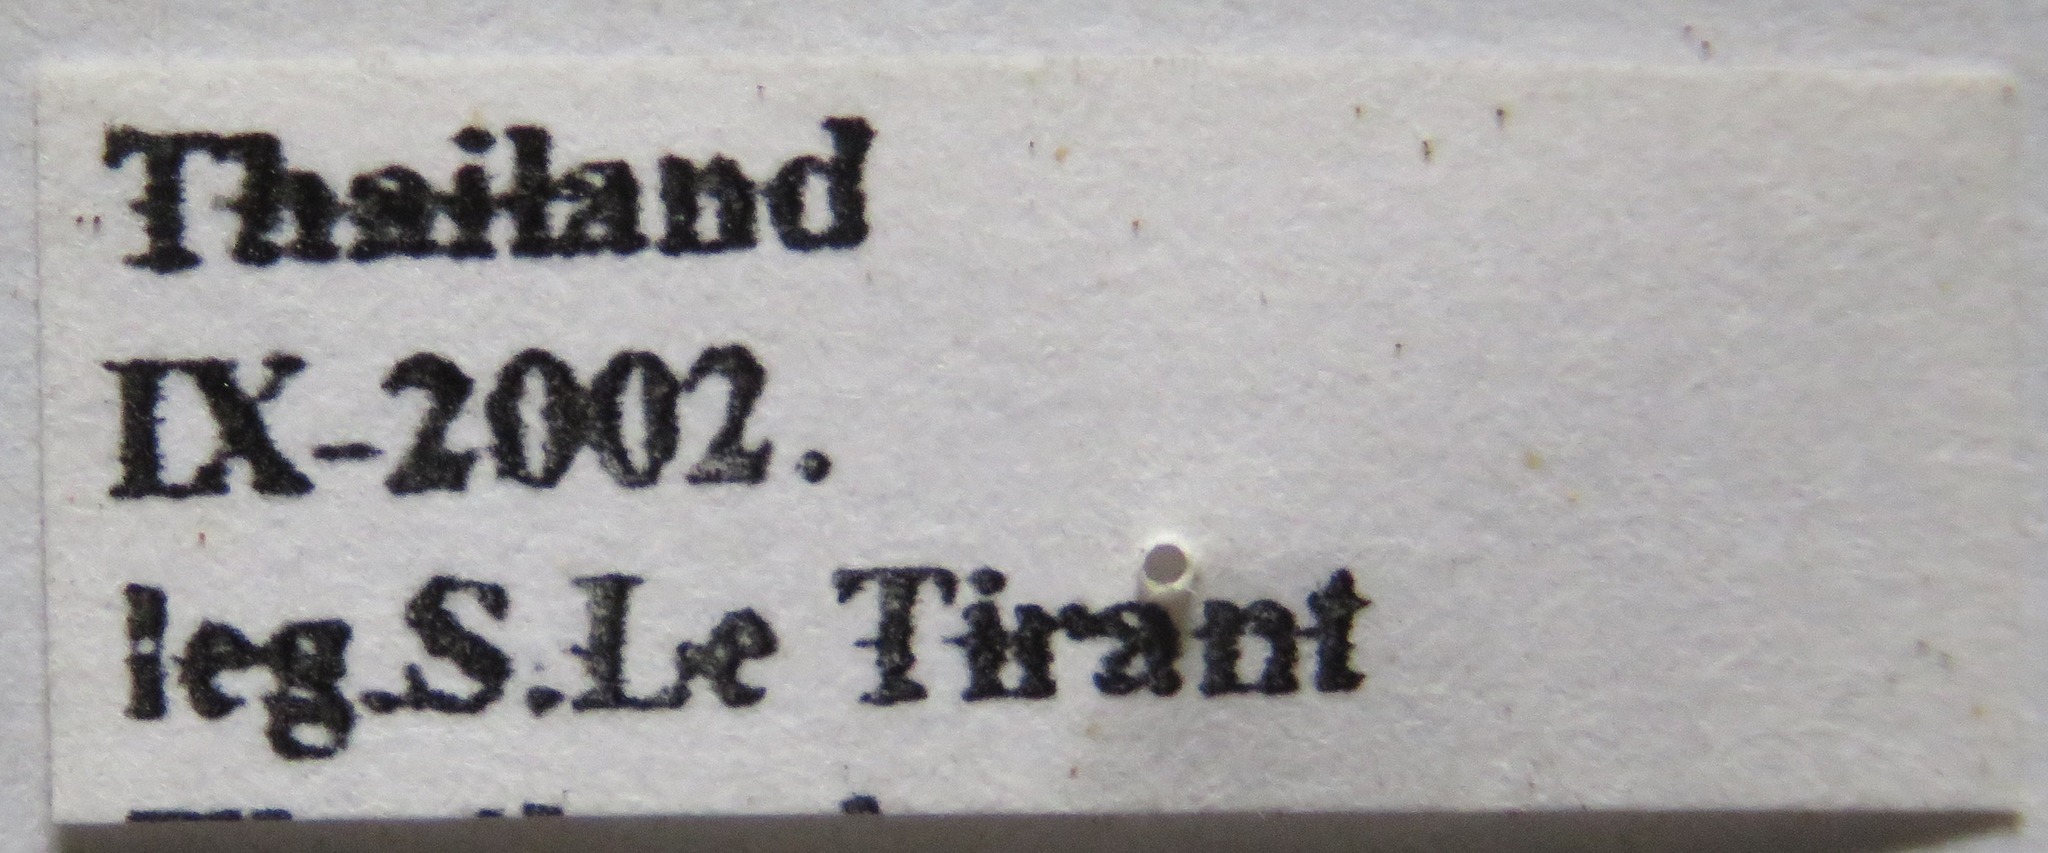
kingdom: Animalia
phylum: Arthropoda
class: Insecta
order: Coleoptera
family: Lucanidae
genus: Prosopocoilus
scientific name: Prosopocoilus jenkinsi
